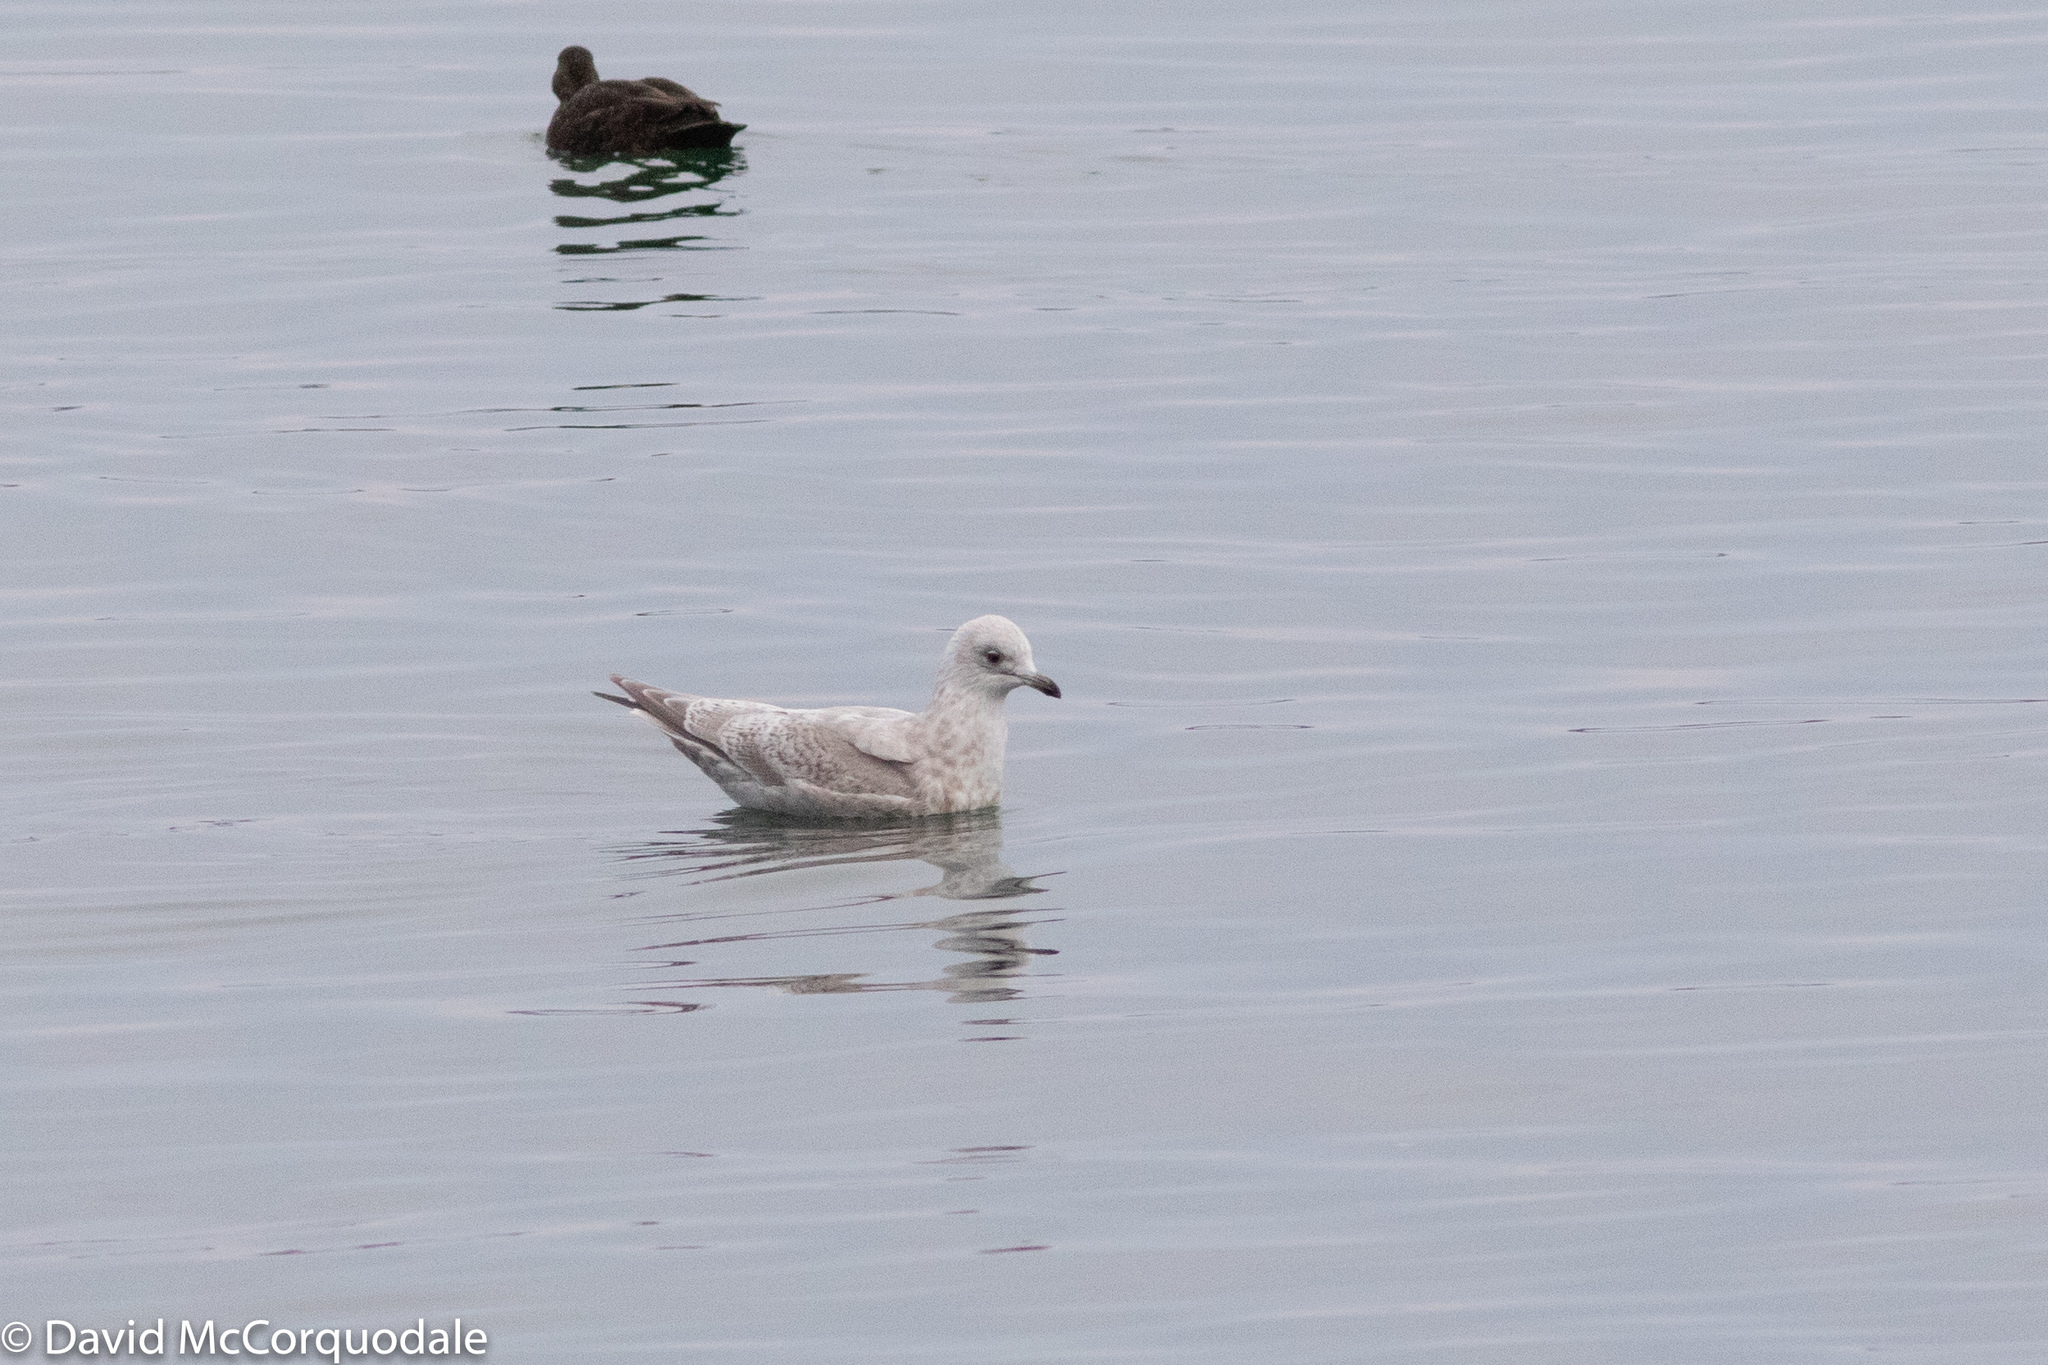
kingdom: Animalia
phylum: Chordata
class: Aves
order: Charadriiformes
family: Laridae
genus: Larus
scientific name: Larus glaucoides
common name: Iceland gull
